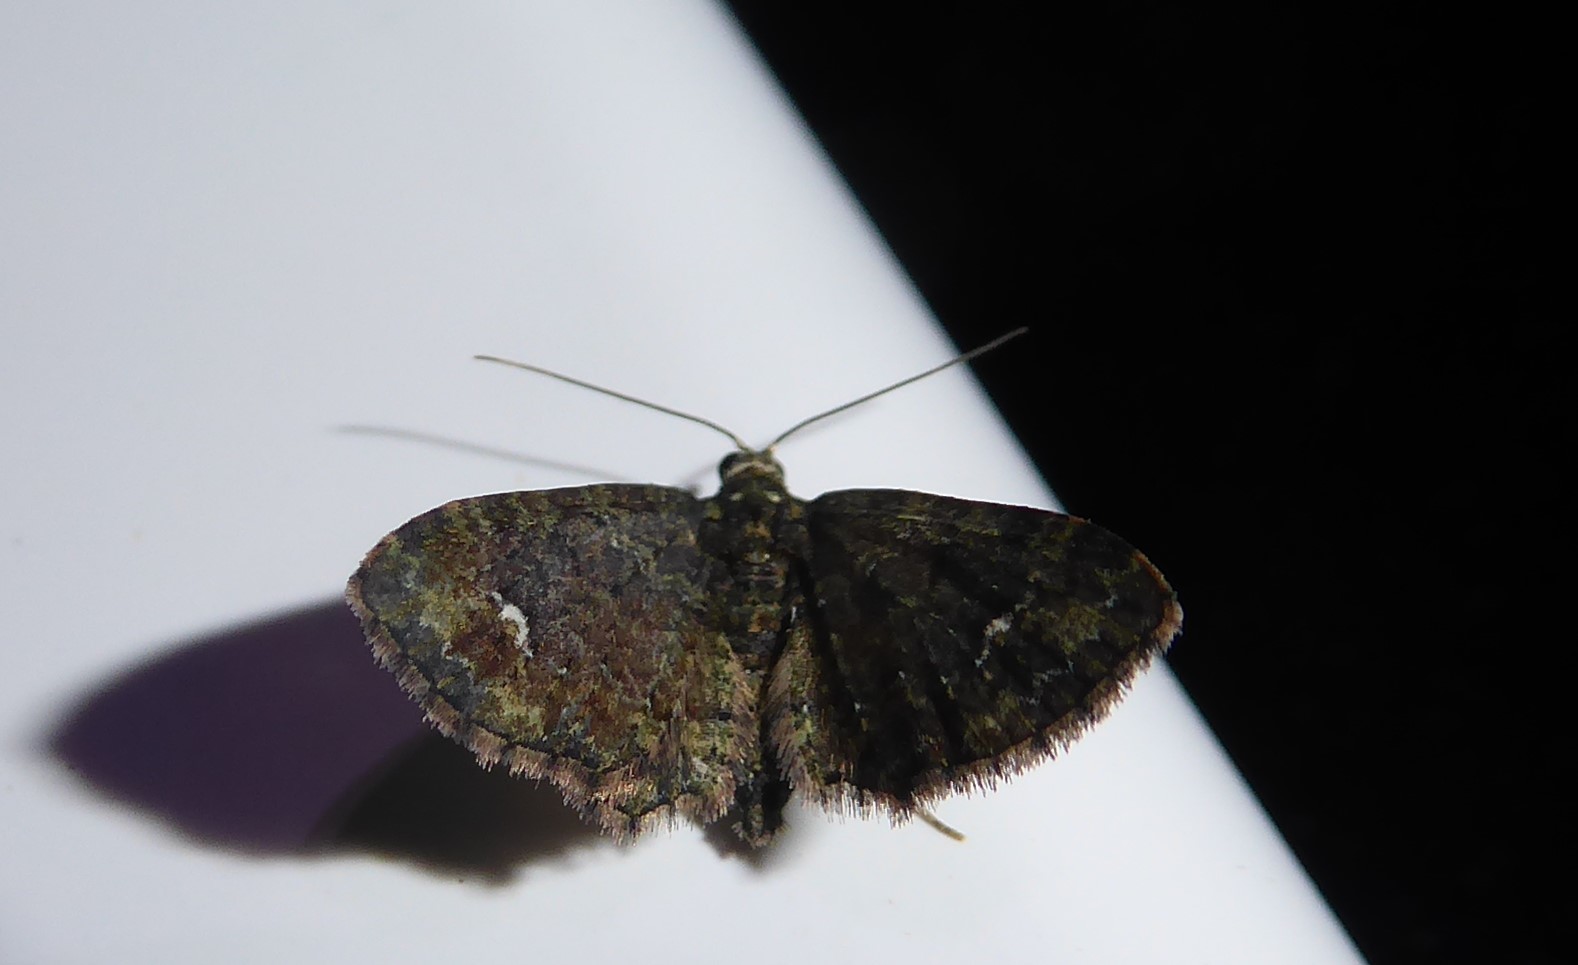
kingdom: Animalia
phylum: Arthropoda
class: Insecta
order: Lepidoptera
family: Geometridae
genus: Pasiphilodes
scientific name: Pasiphilodes testulata
